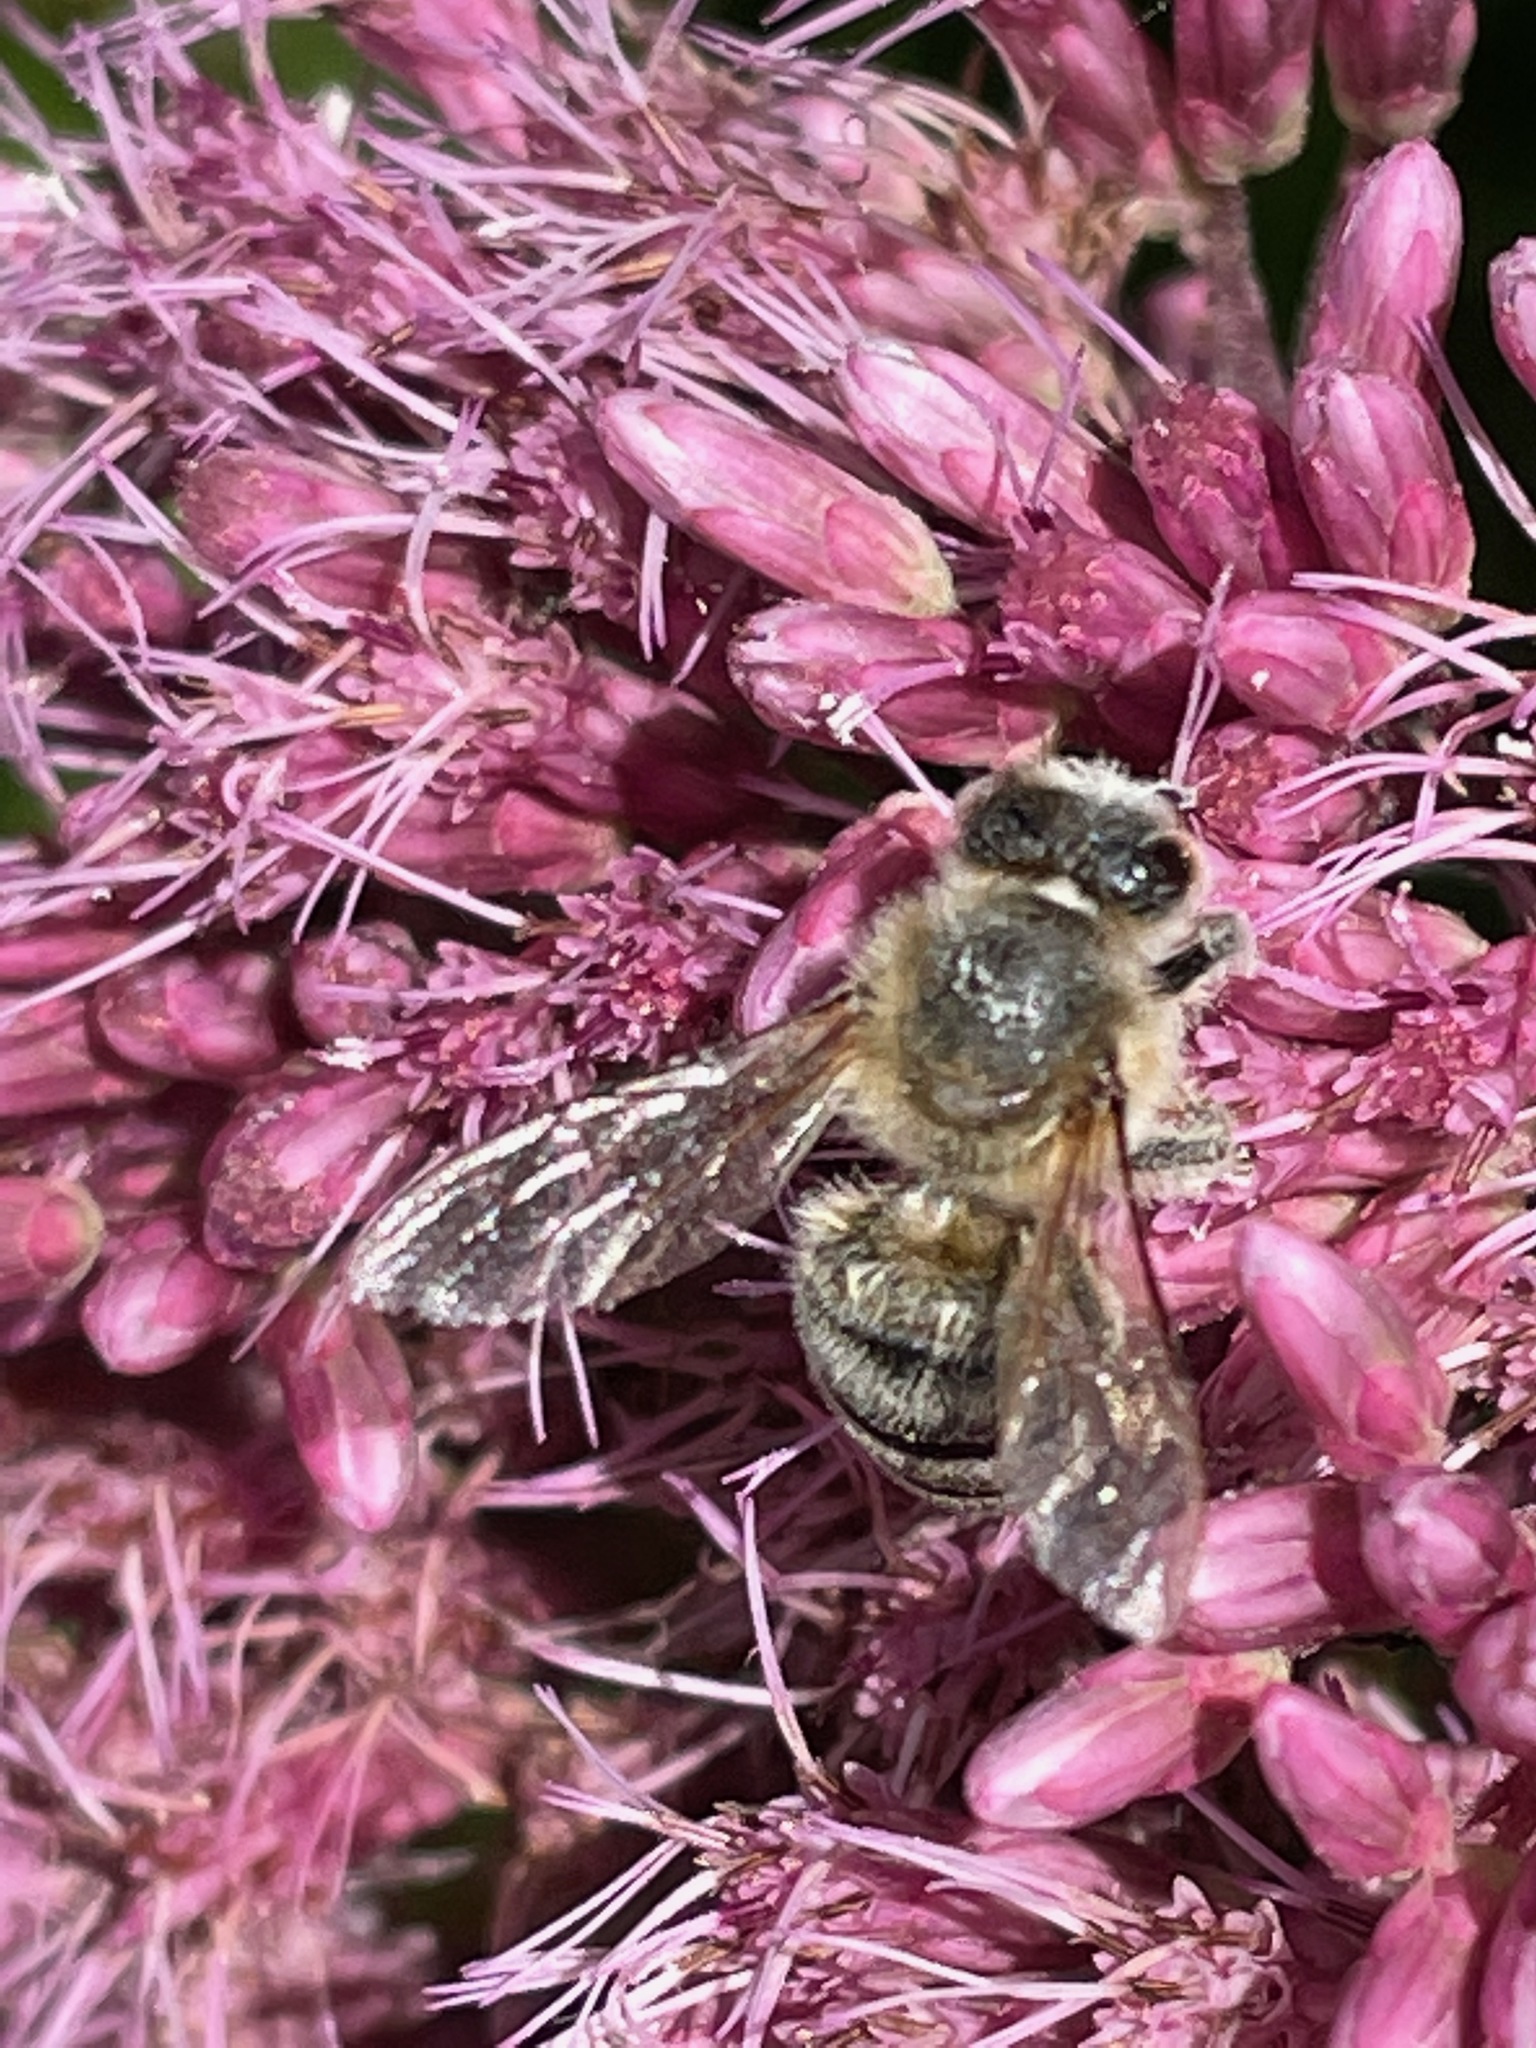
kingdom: Animalia
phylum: Arthropoda
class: Insecta
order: Hymenoptera
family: Apidae
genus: Apis
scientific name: Apis mellifera
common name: Honey bee
